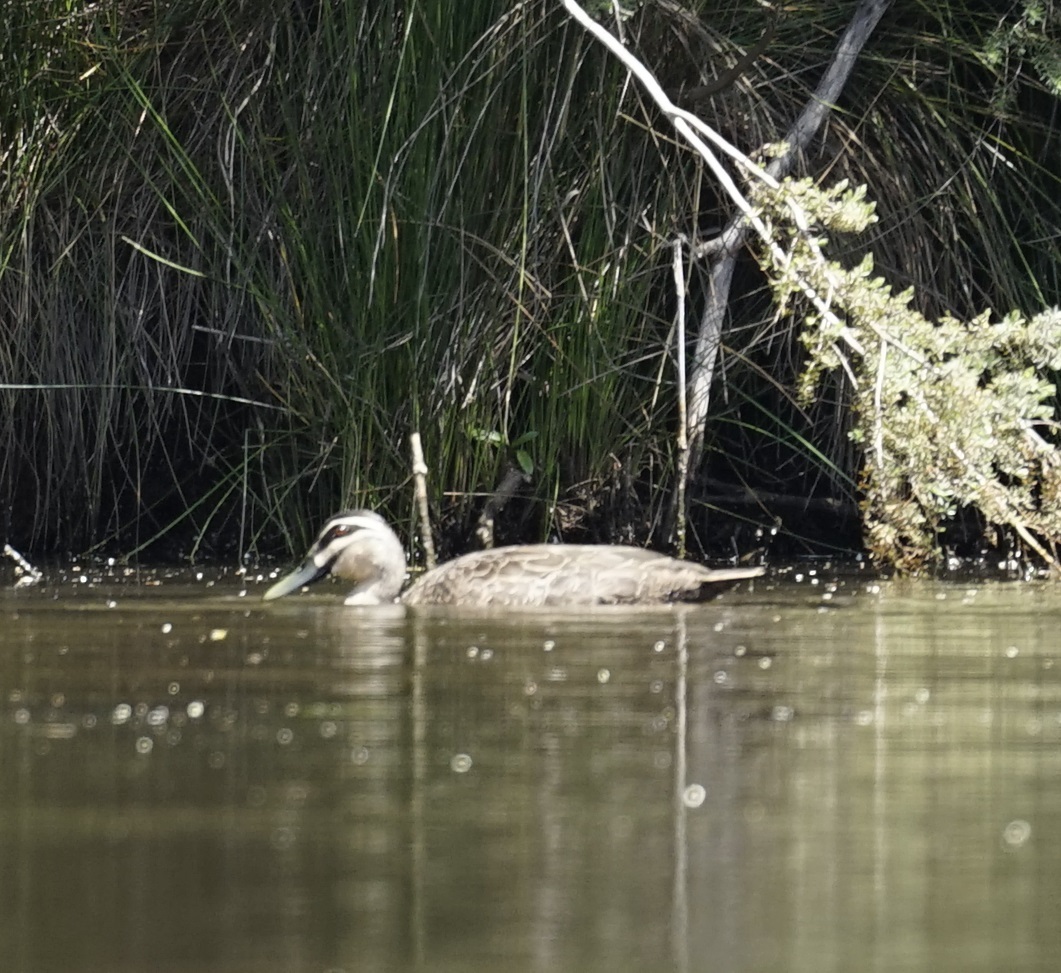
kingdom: Animalia
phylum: Chordata
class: Aves
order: Anseriformes
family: Anatidae
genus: Anas
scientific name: Anas superciliosa
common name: Pacific black duck
